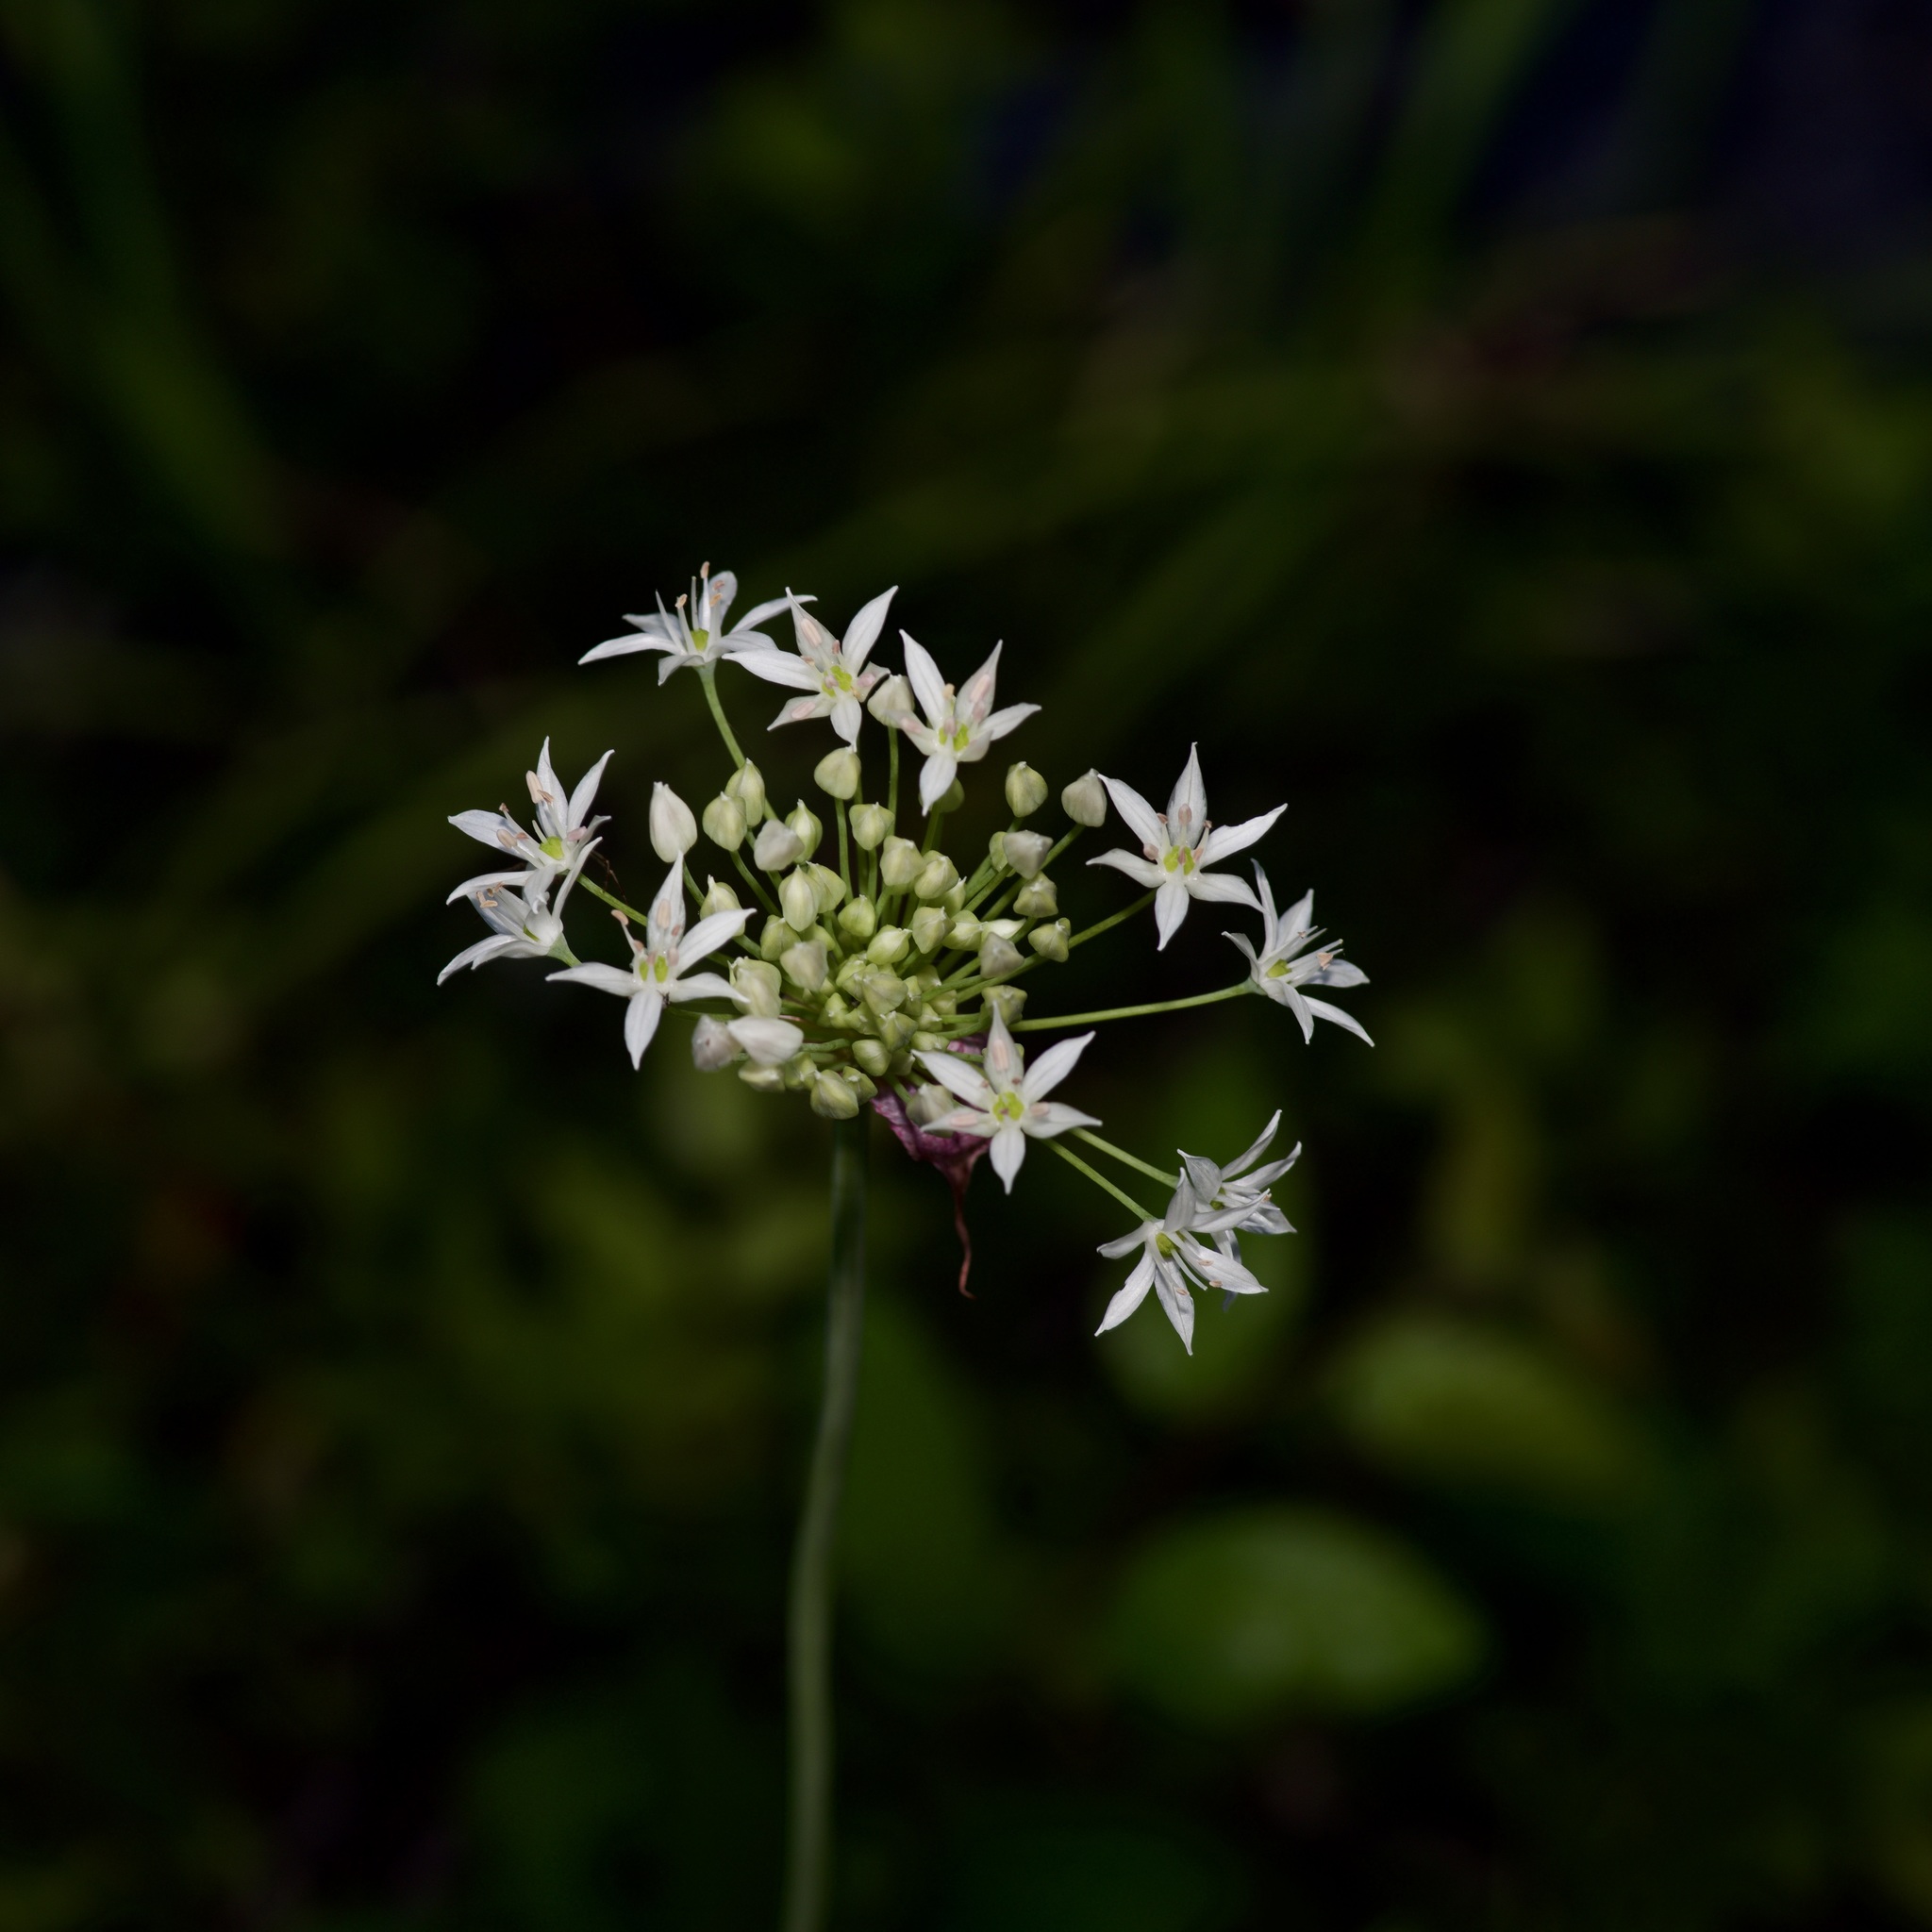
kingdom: Plantae
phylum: Tracheophyta
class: Liliopsida
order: Asparagales
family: Amaryllidaceae
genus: Allium
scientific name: Allium fraseri
